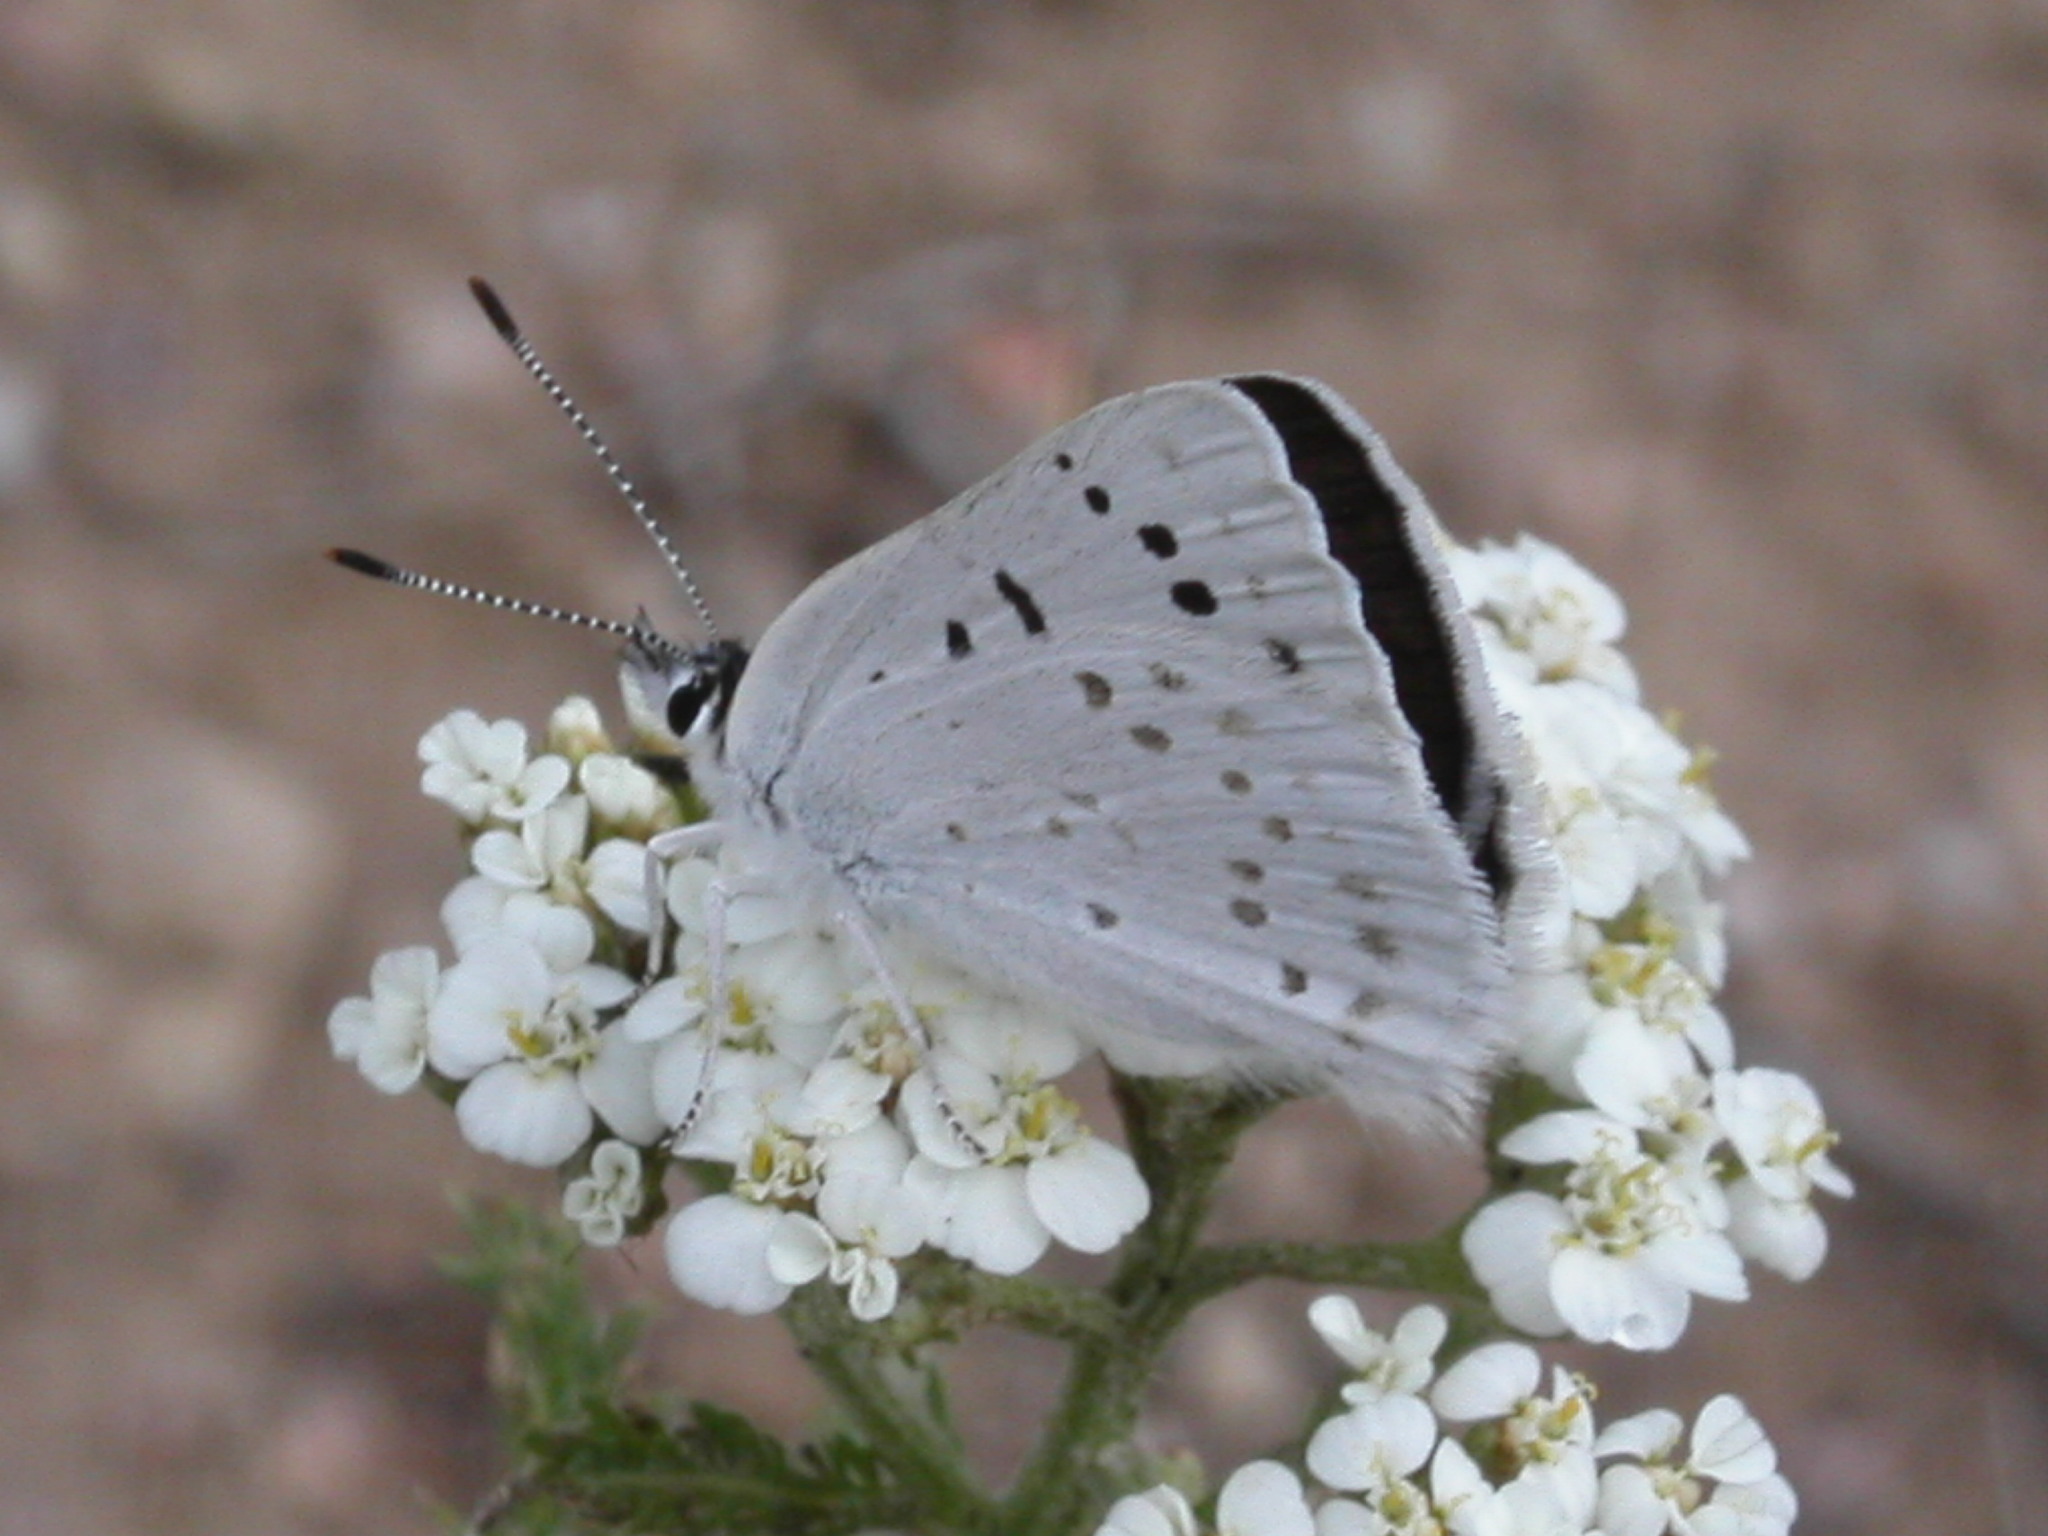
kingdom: Animalia
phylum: Arthropoda
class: Insecta
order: Lepidoptera
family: Lycaenidae
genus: Tharsalea
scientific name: Tharsalea heteronea
